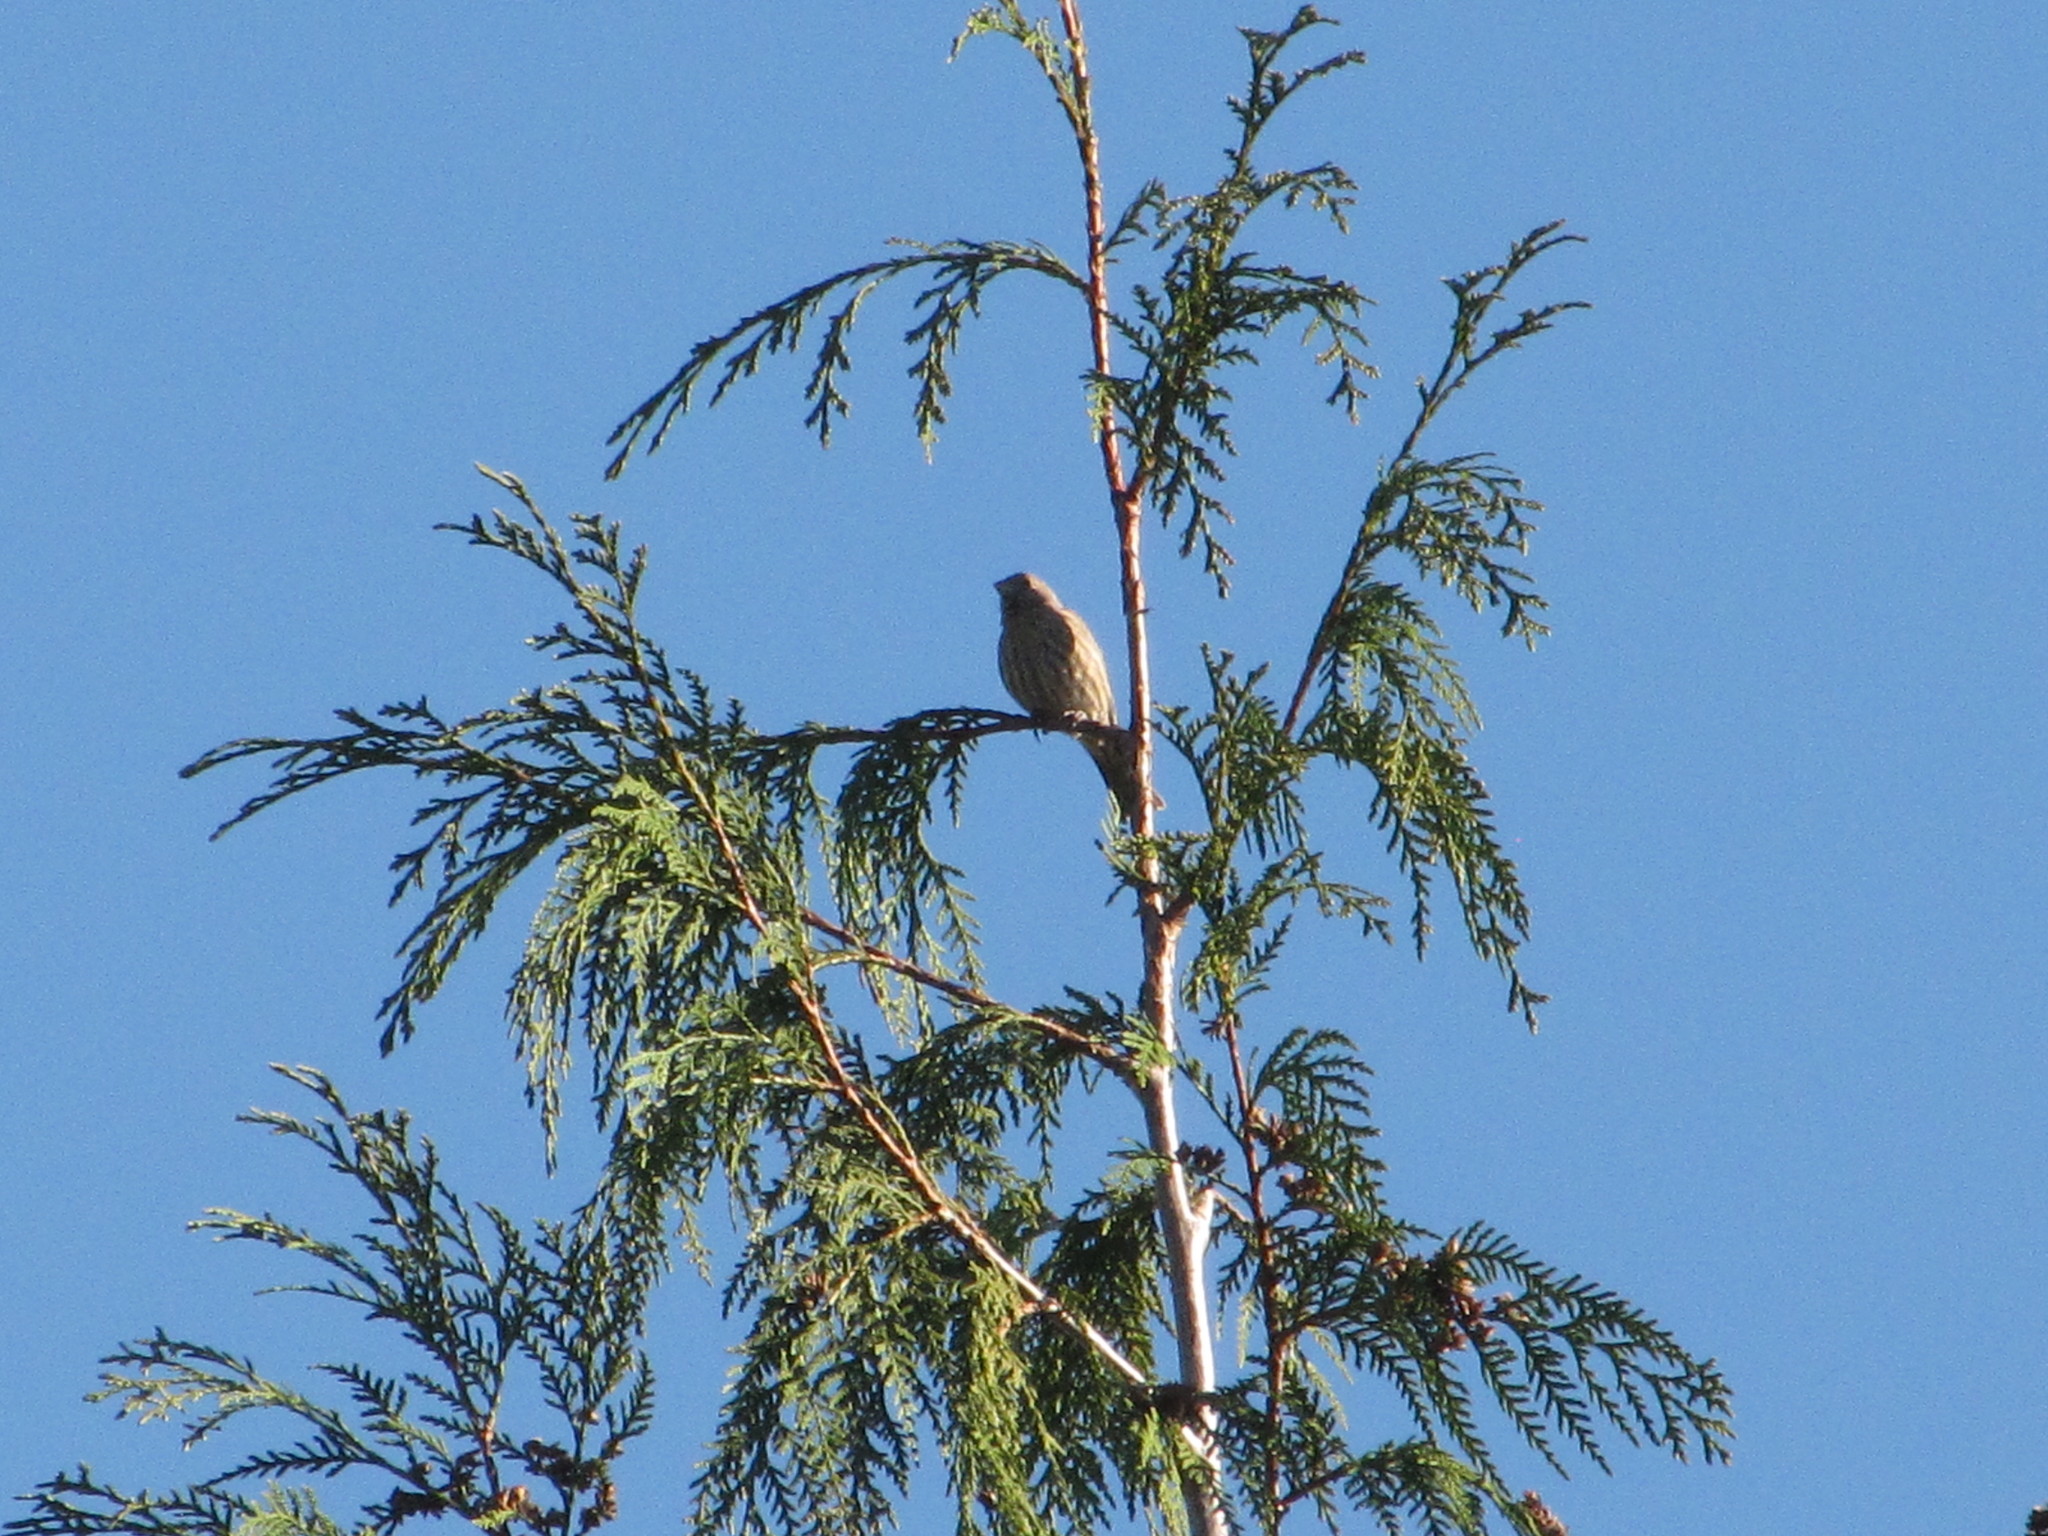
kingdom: Animalia
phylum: Chordata
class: Aves
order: Passeriformes
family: Fringillidae
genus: Haemorhous
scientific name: Haemorhous mexicanus
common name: House finch
